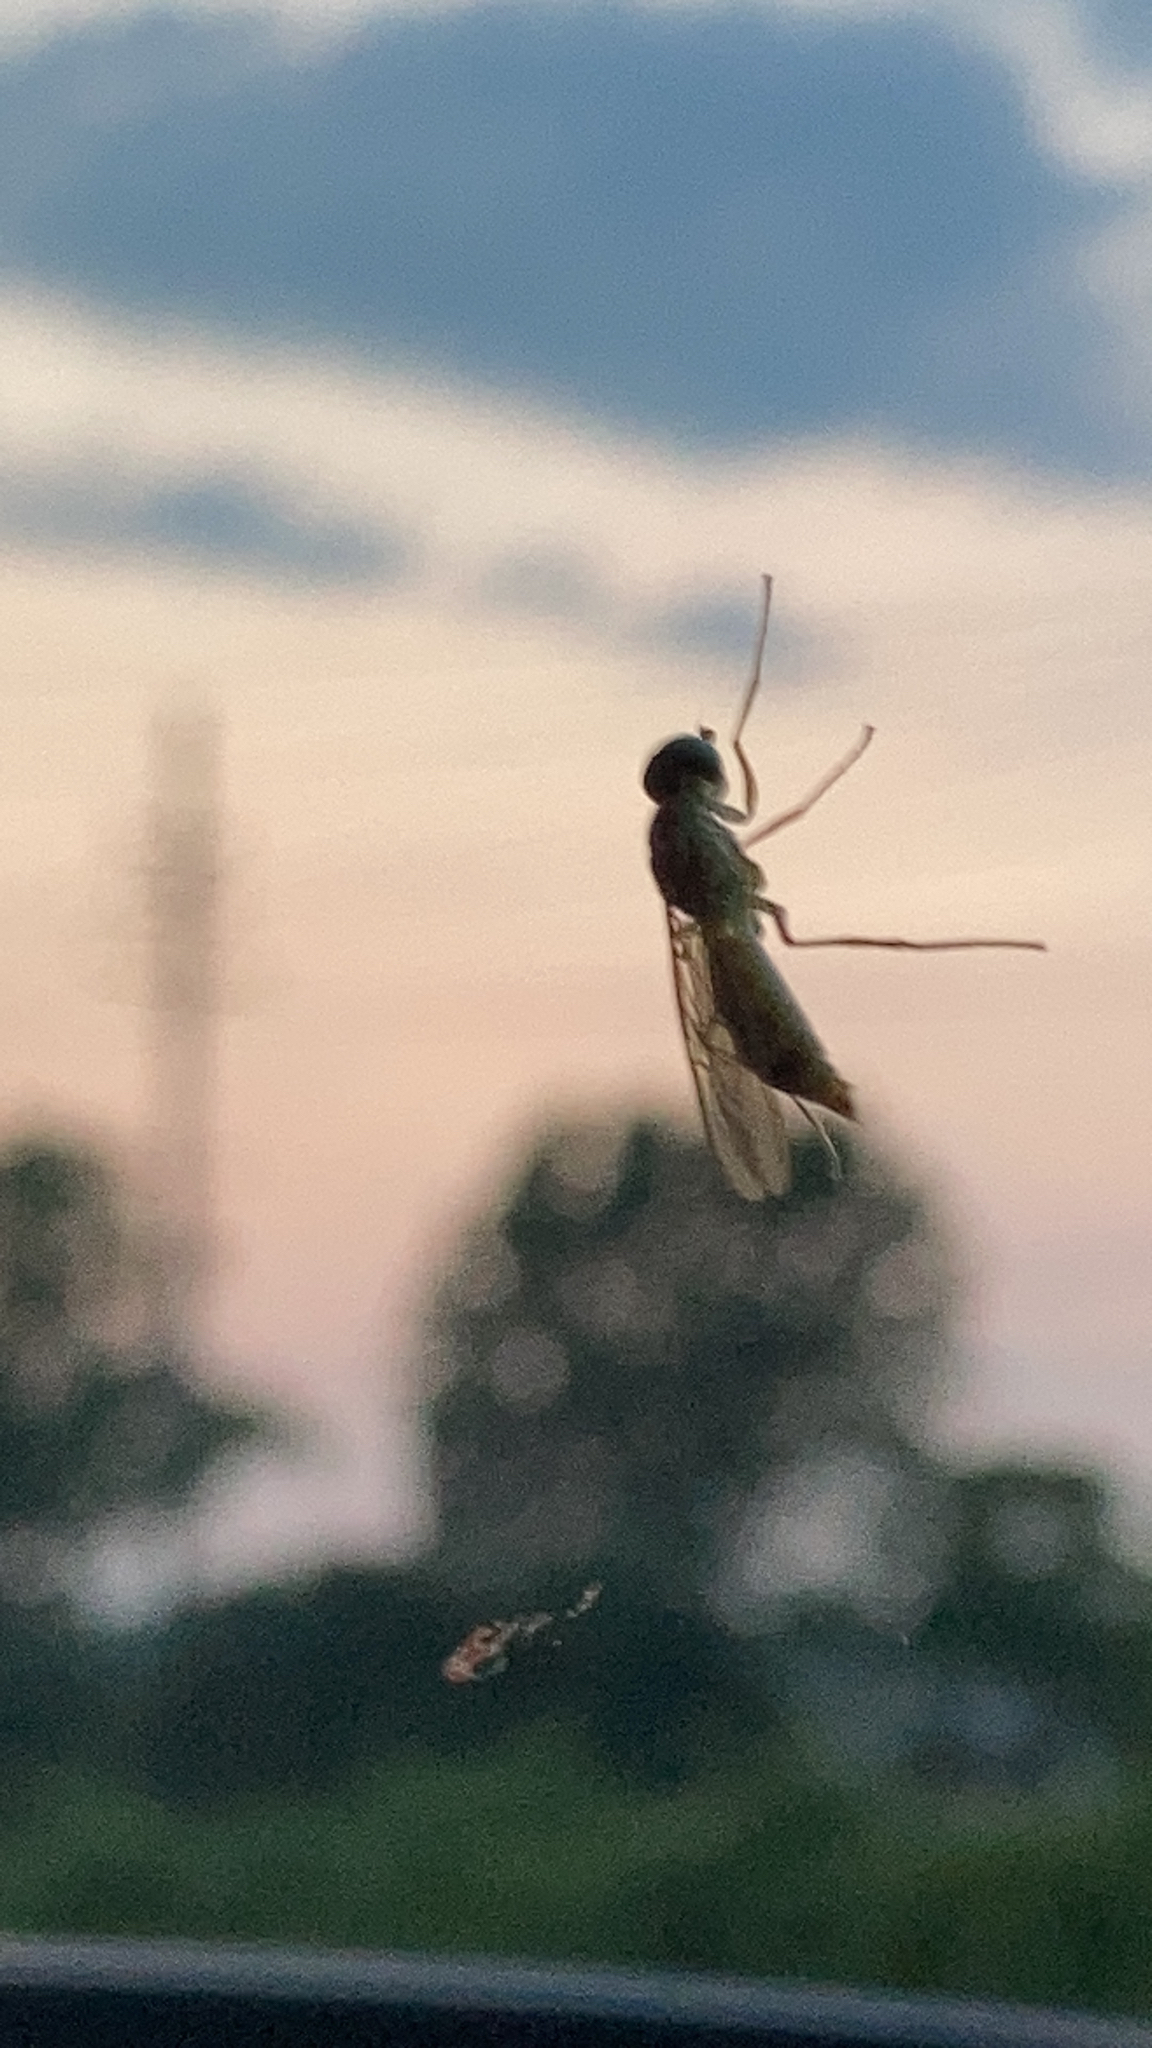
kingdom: Animalia
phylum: Arthropoda
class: Insecta
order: Diptera
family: Stratiomyidae
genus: Ptecticus
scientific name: Ptecticus trivittatus
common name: Compost fly
